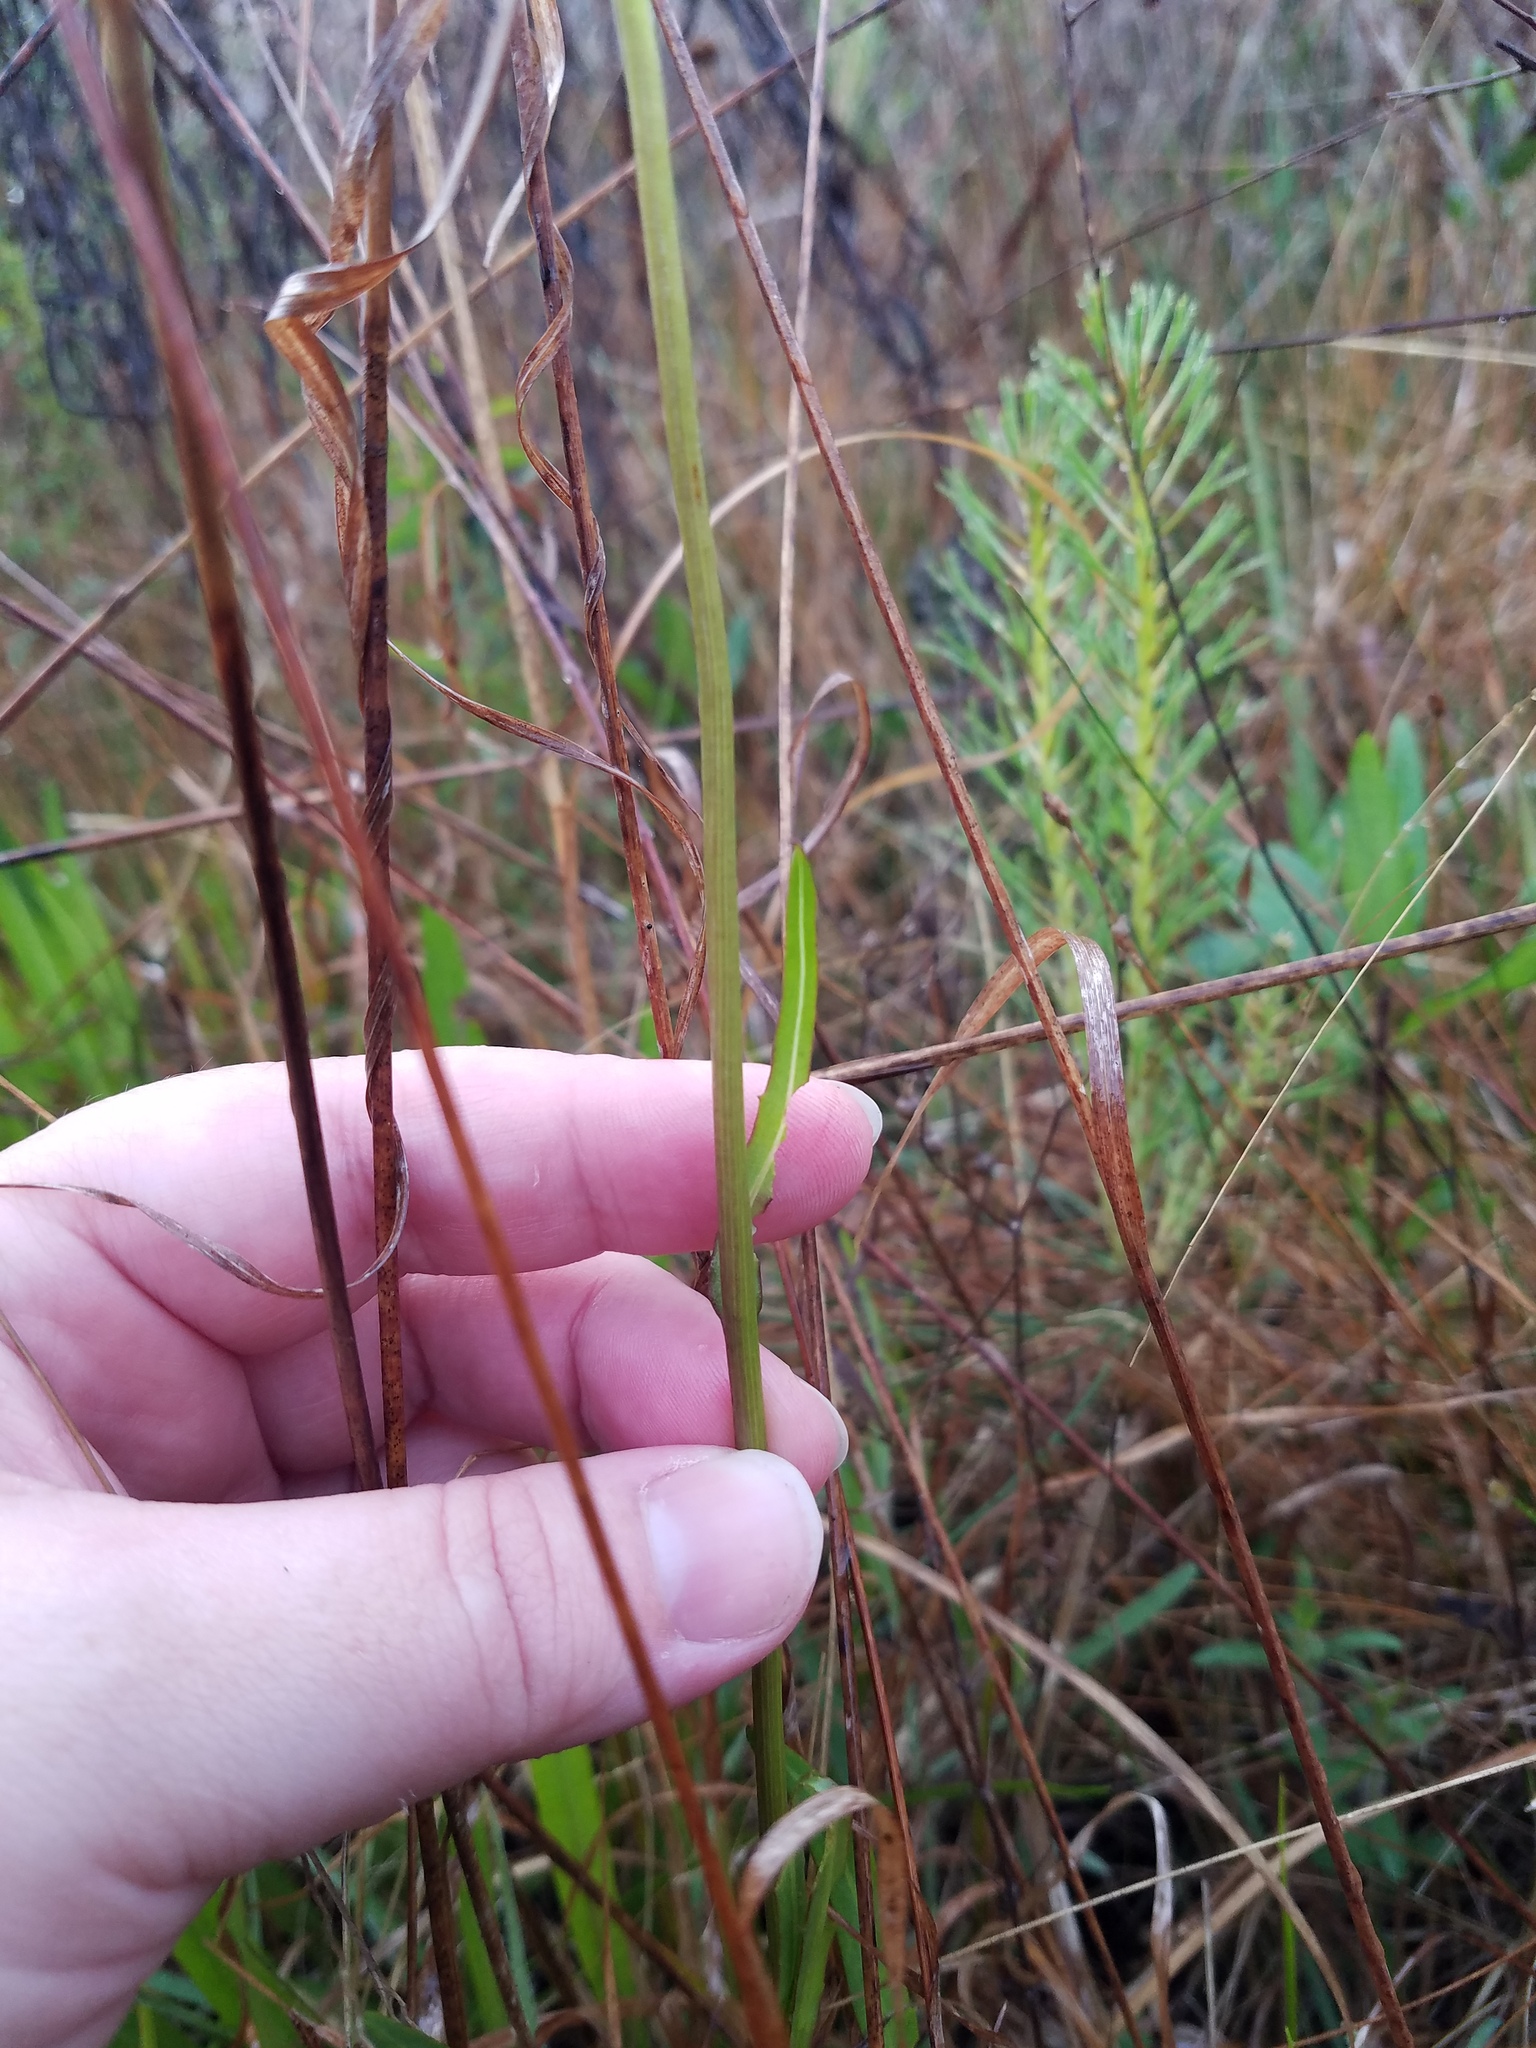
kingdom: Plantae
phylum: Tracheophyta
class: Magnoliopsida
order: Asterales
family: Asteraceae
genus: Helenium
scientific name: Helenium vernale
